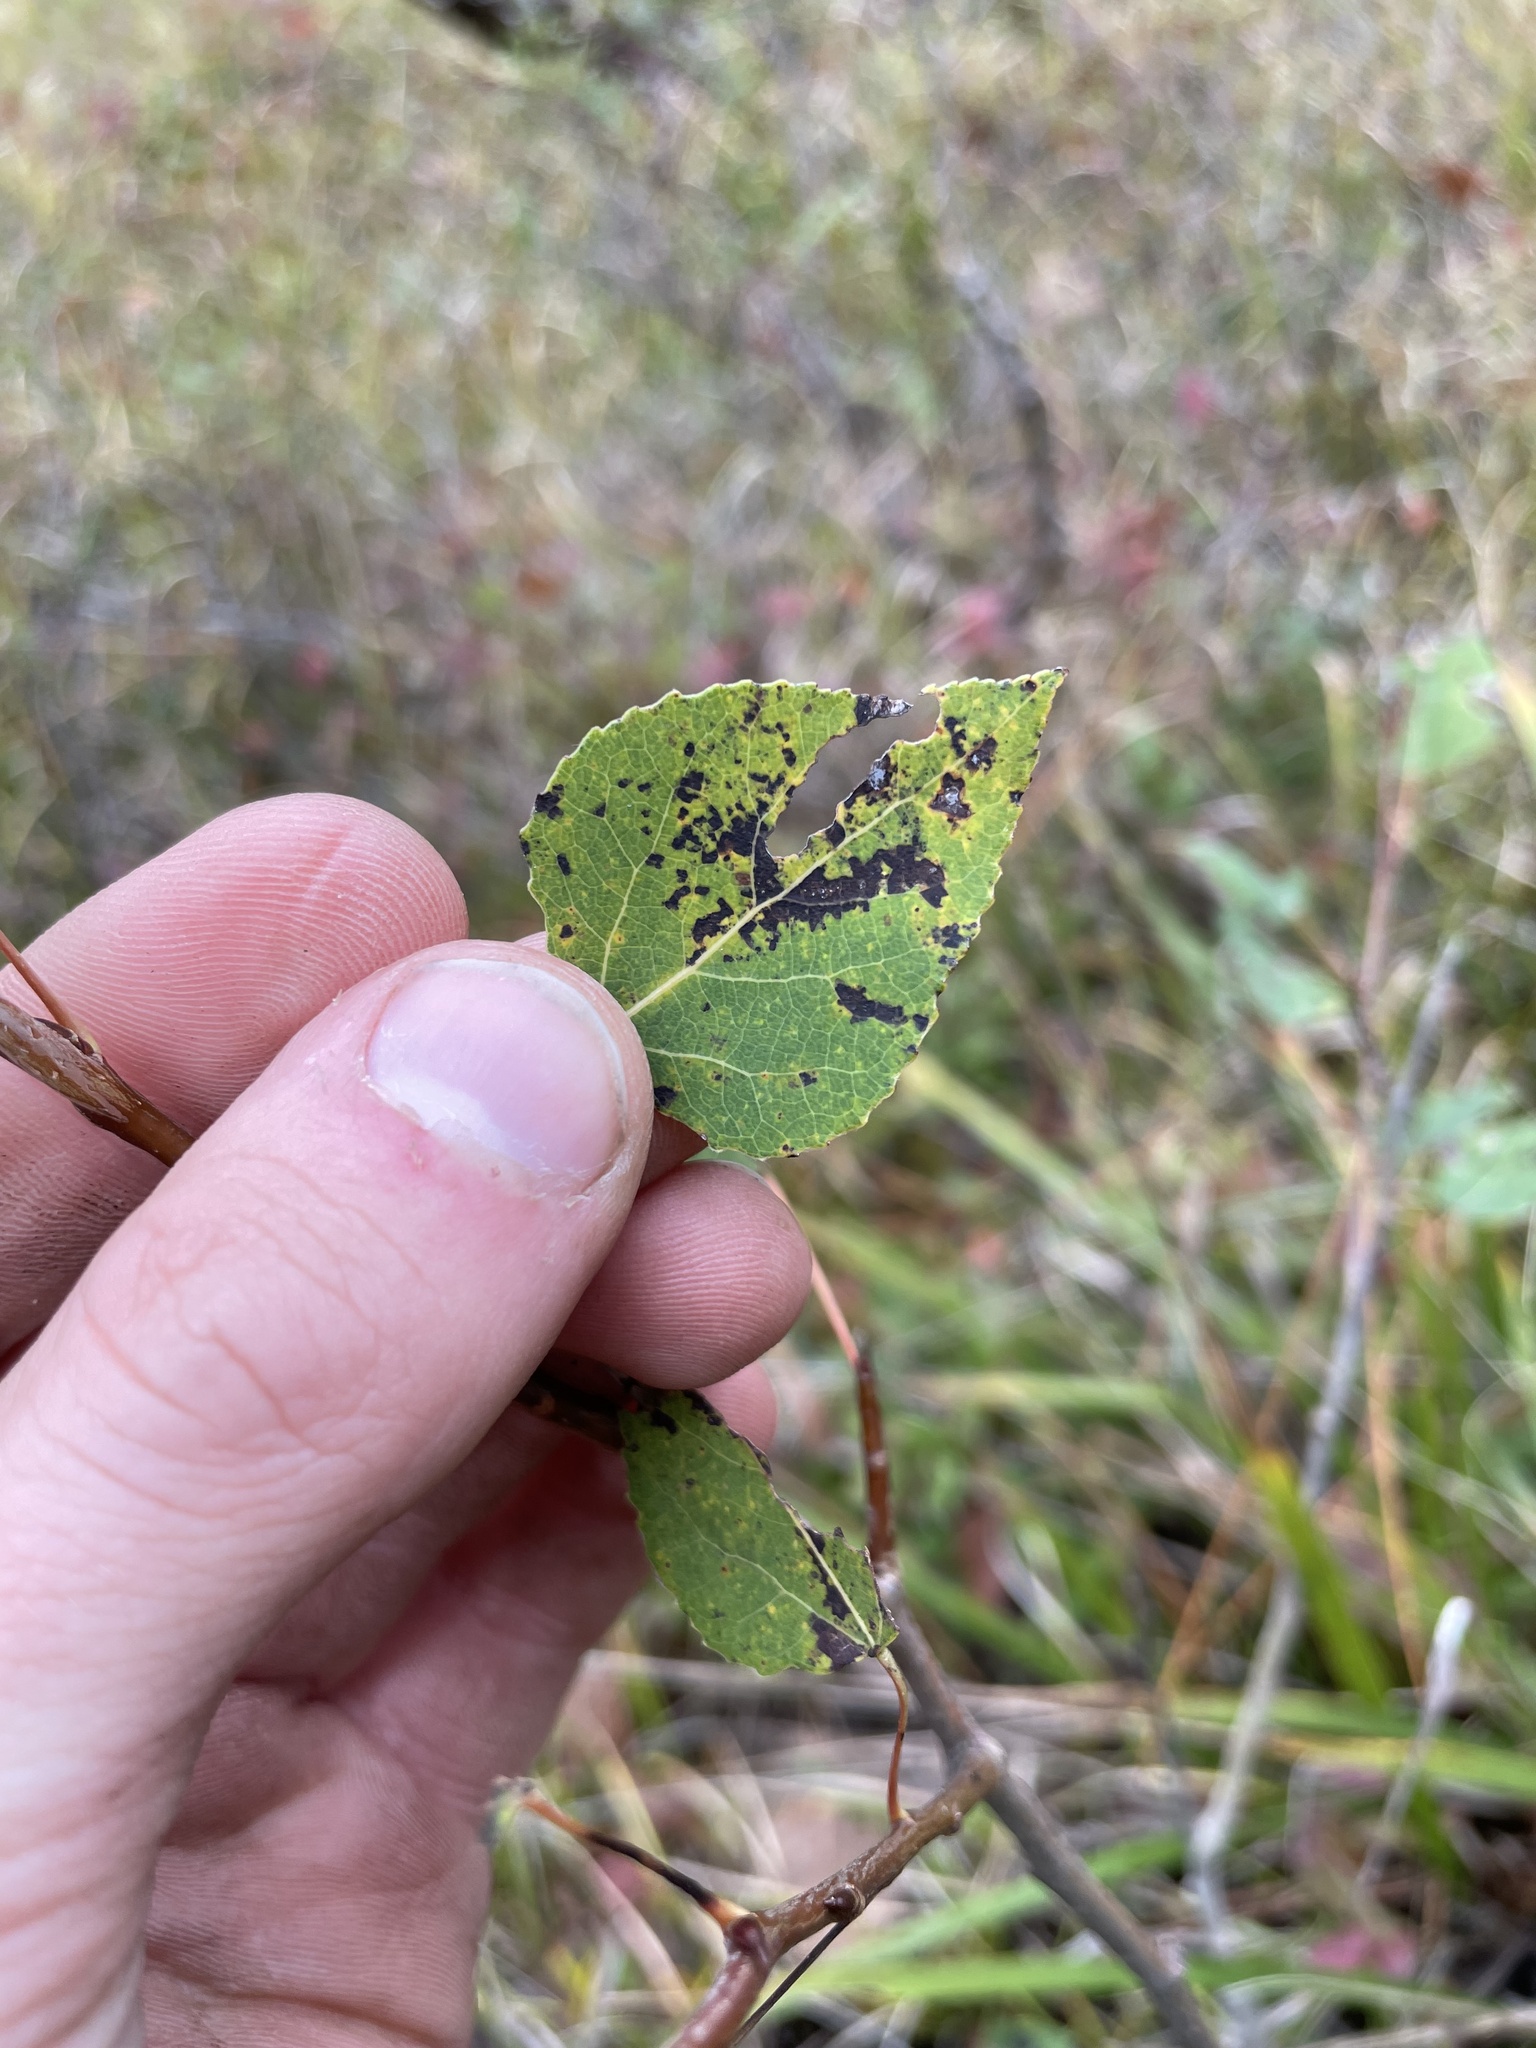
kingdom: Plantae
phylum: Tracheophyta
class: Magnoliopsida
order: Malpighiales
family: Salicaceae
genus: Populus
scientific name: Populus tremuloides
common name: Quaking aspen
